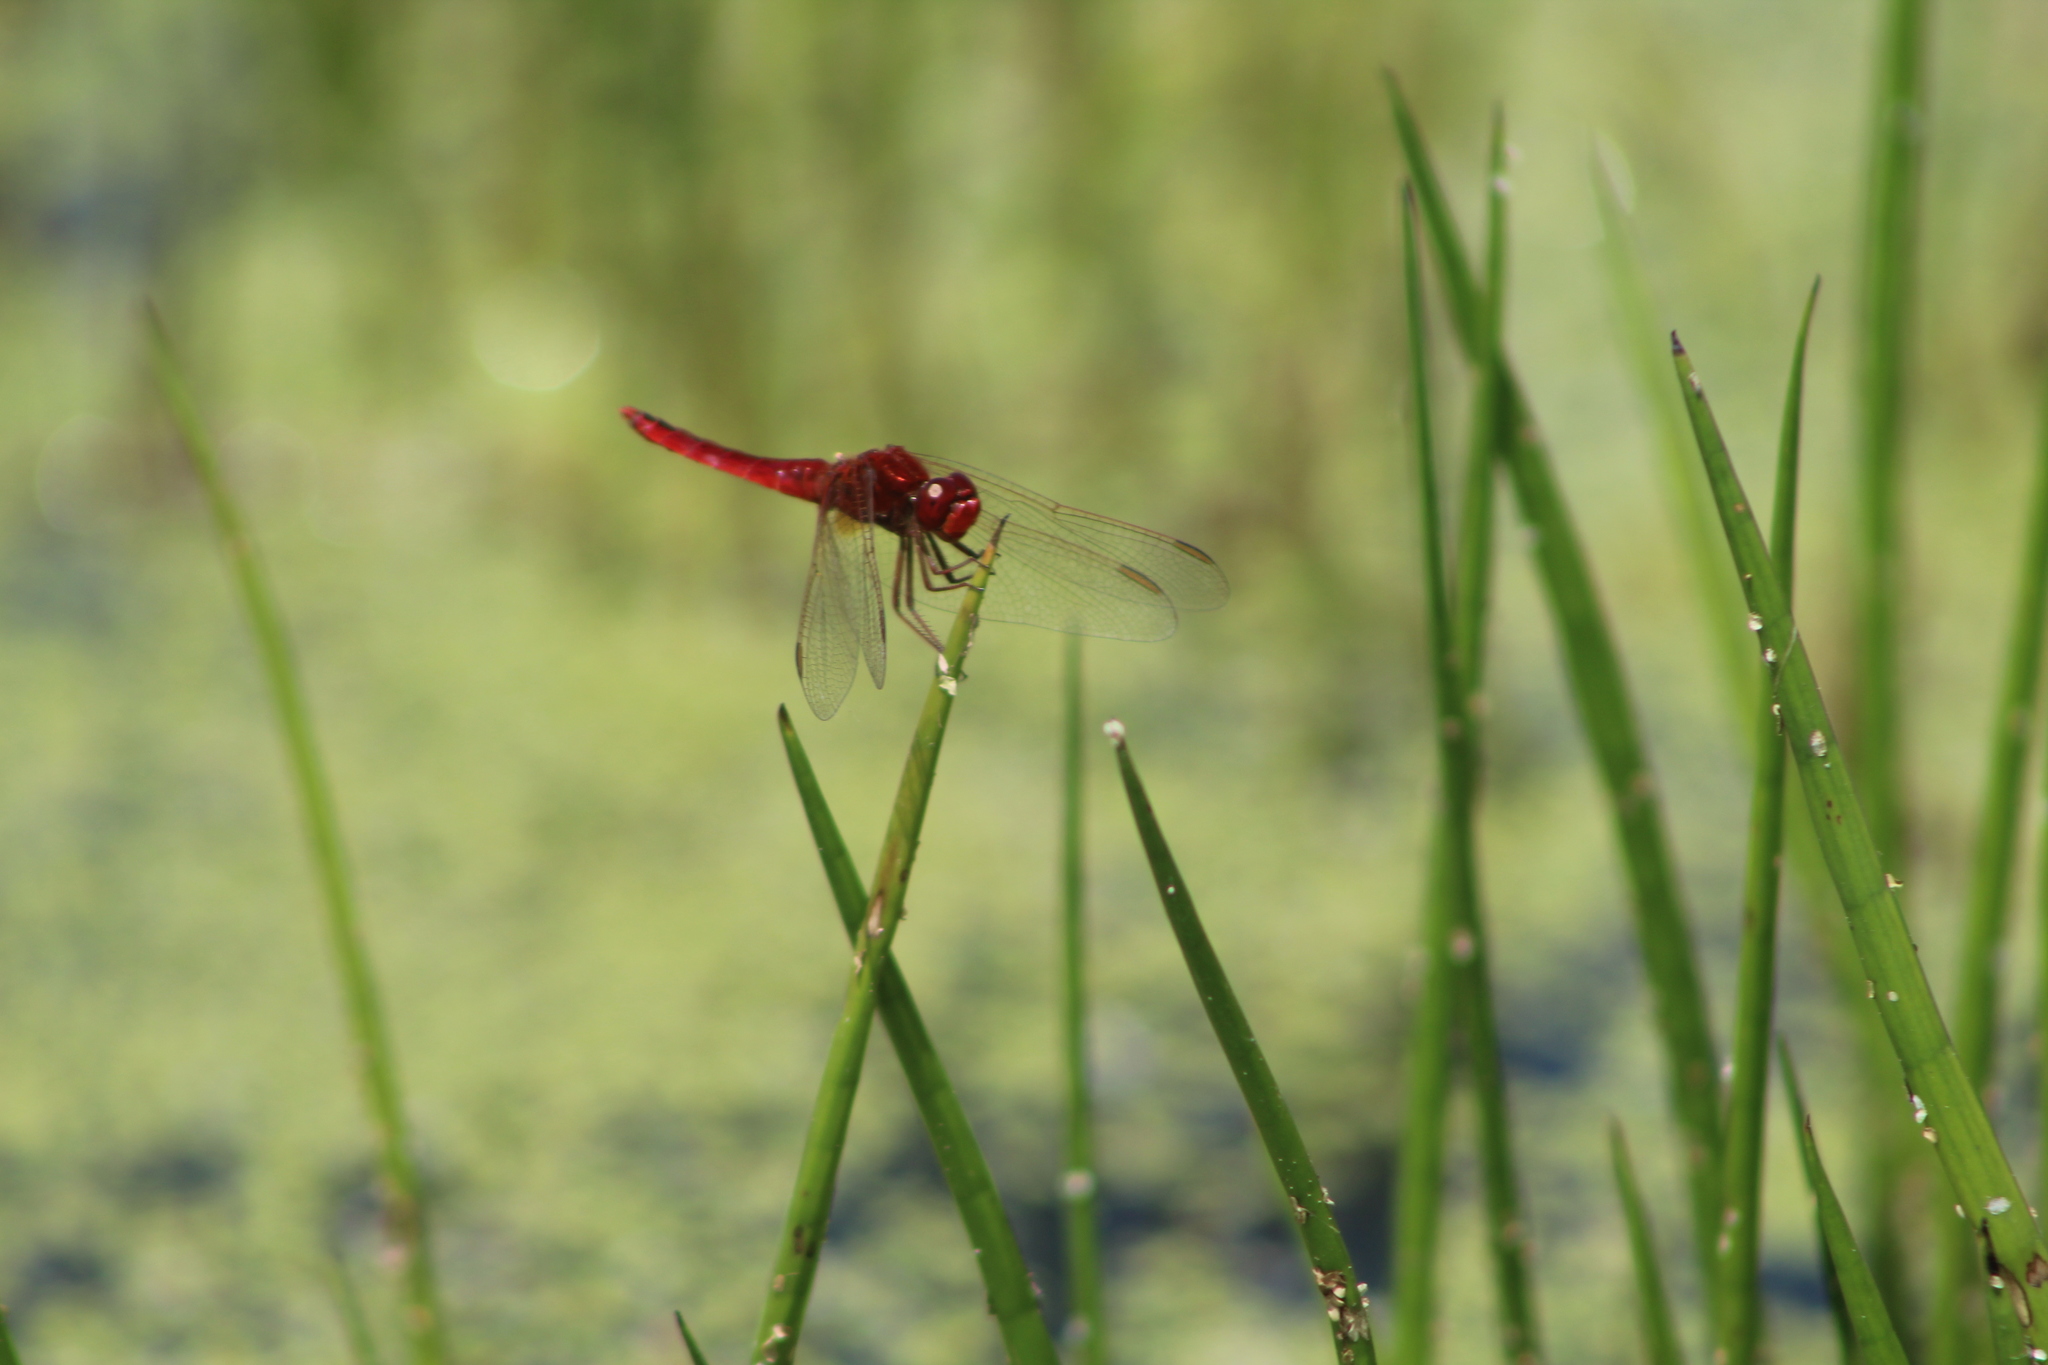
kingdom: Animalia
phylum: Arthropoda
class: Insecta
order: Odonata
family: Libellulidae
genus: Crocothemis
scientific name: Crocothemis erythraea
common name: Scarlet dragonfly
